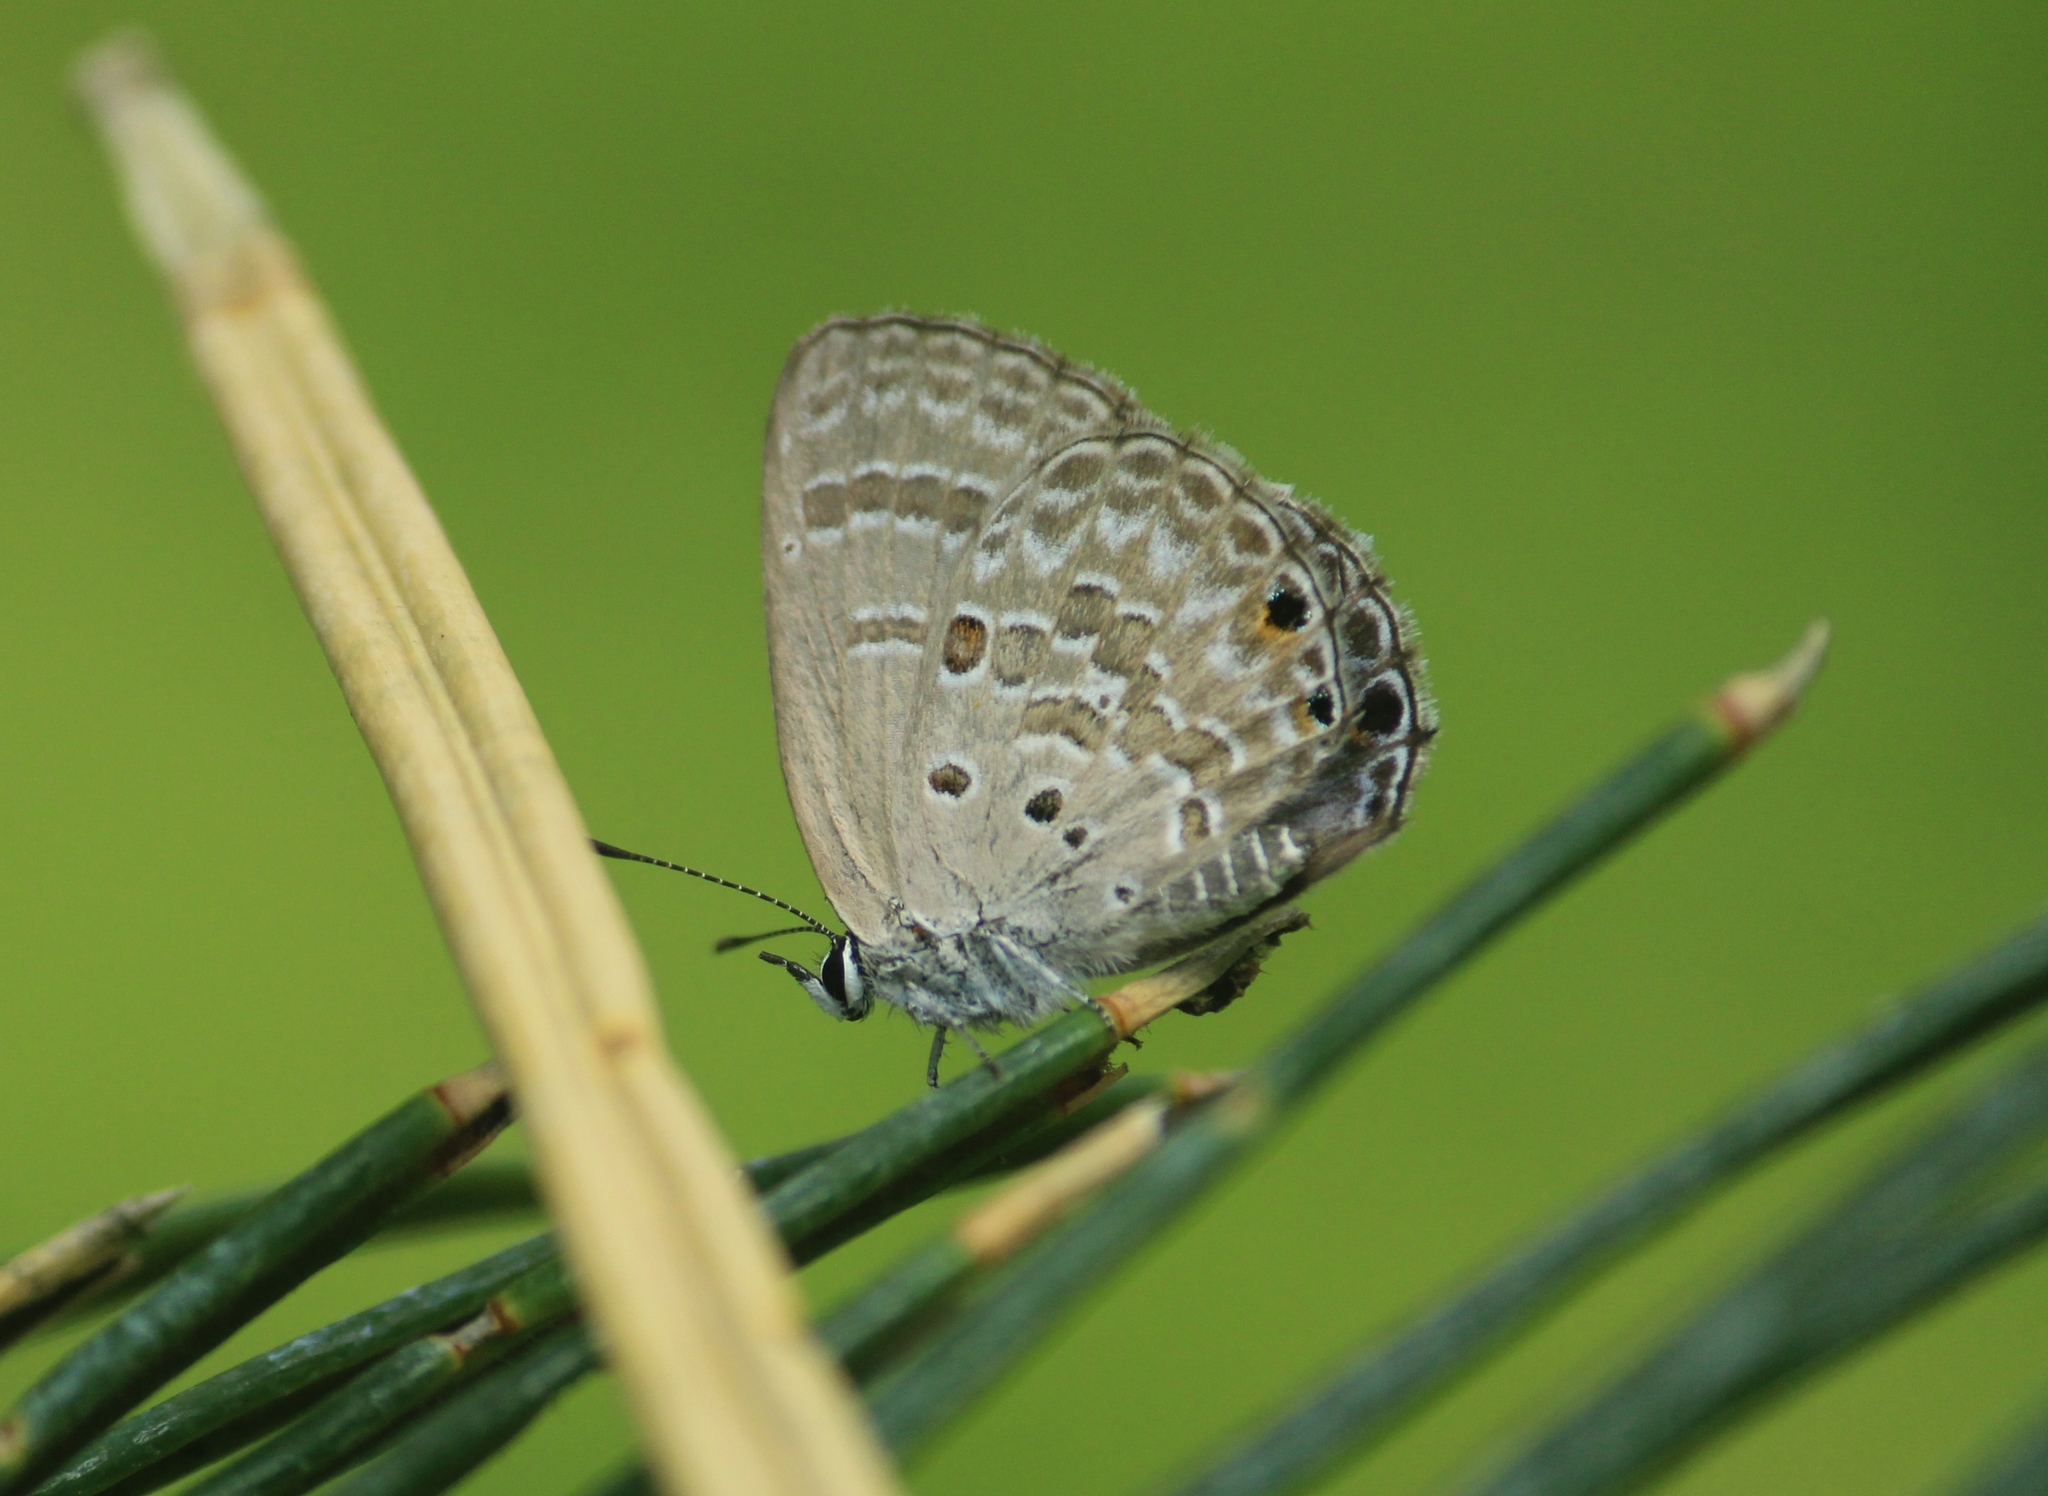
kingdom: Animalia
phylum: Arthropoda
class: Insecta
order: Lepidoptera
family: Lycaenidae
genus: Luthrodes
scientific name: Luthrodes pandava
